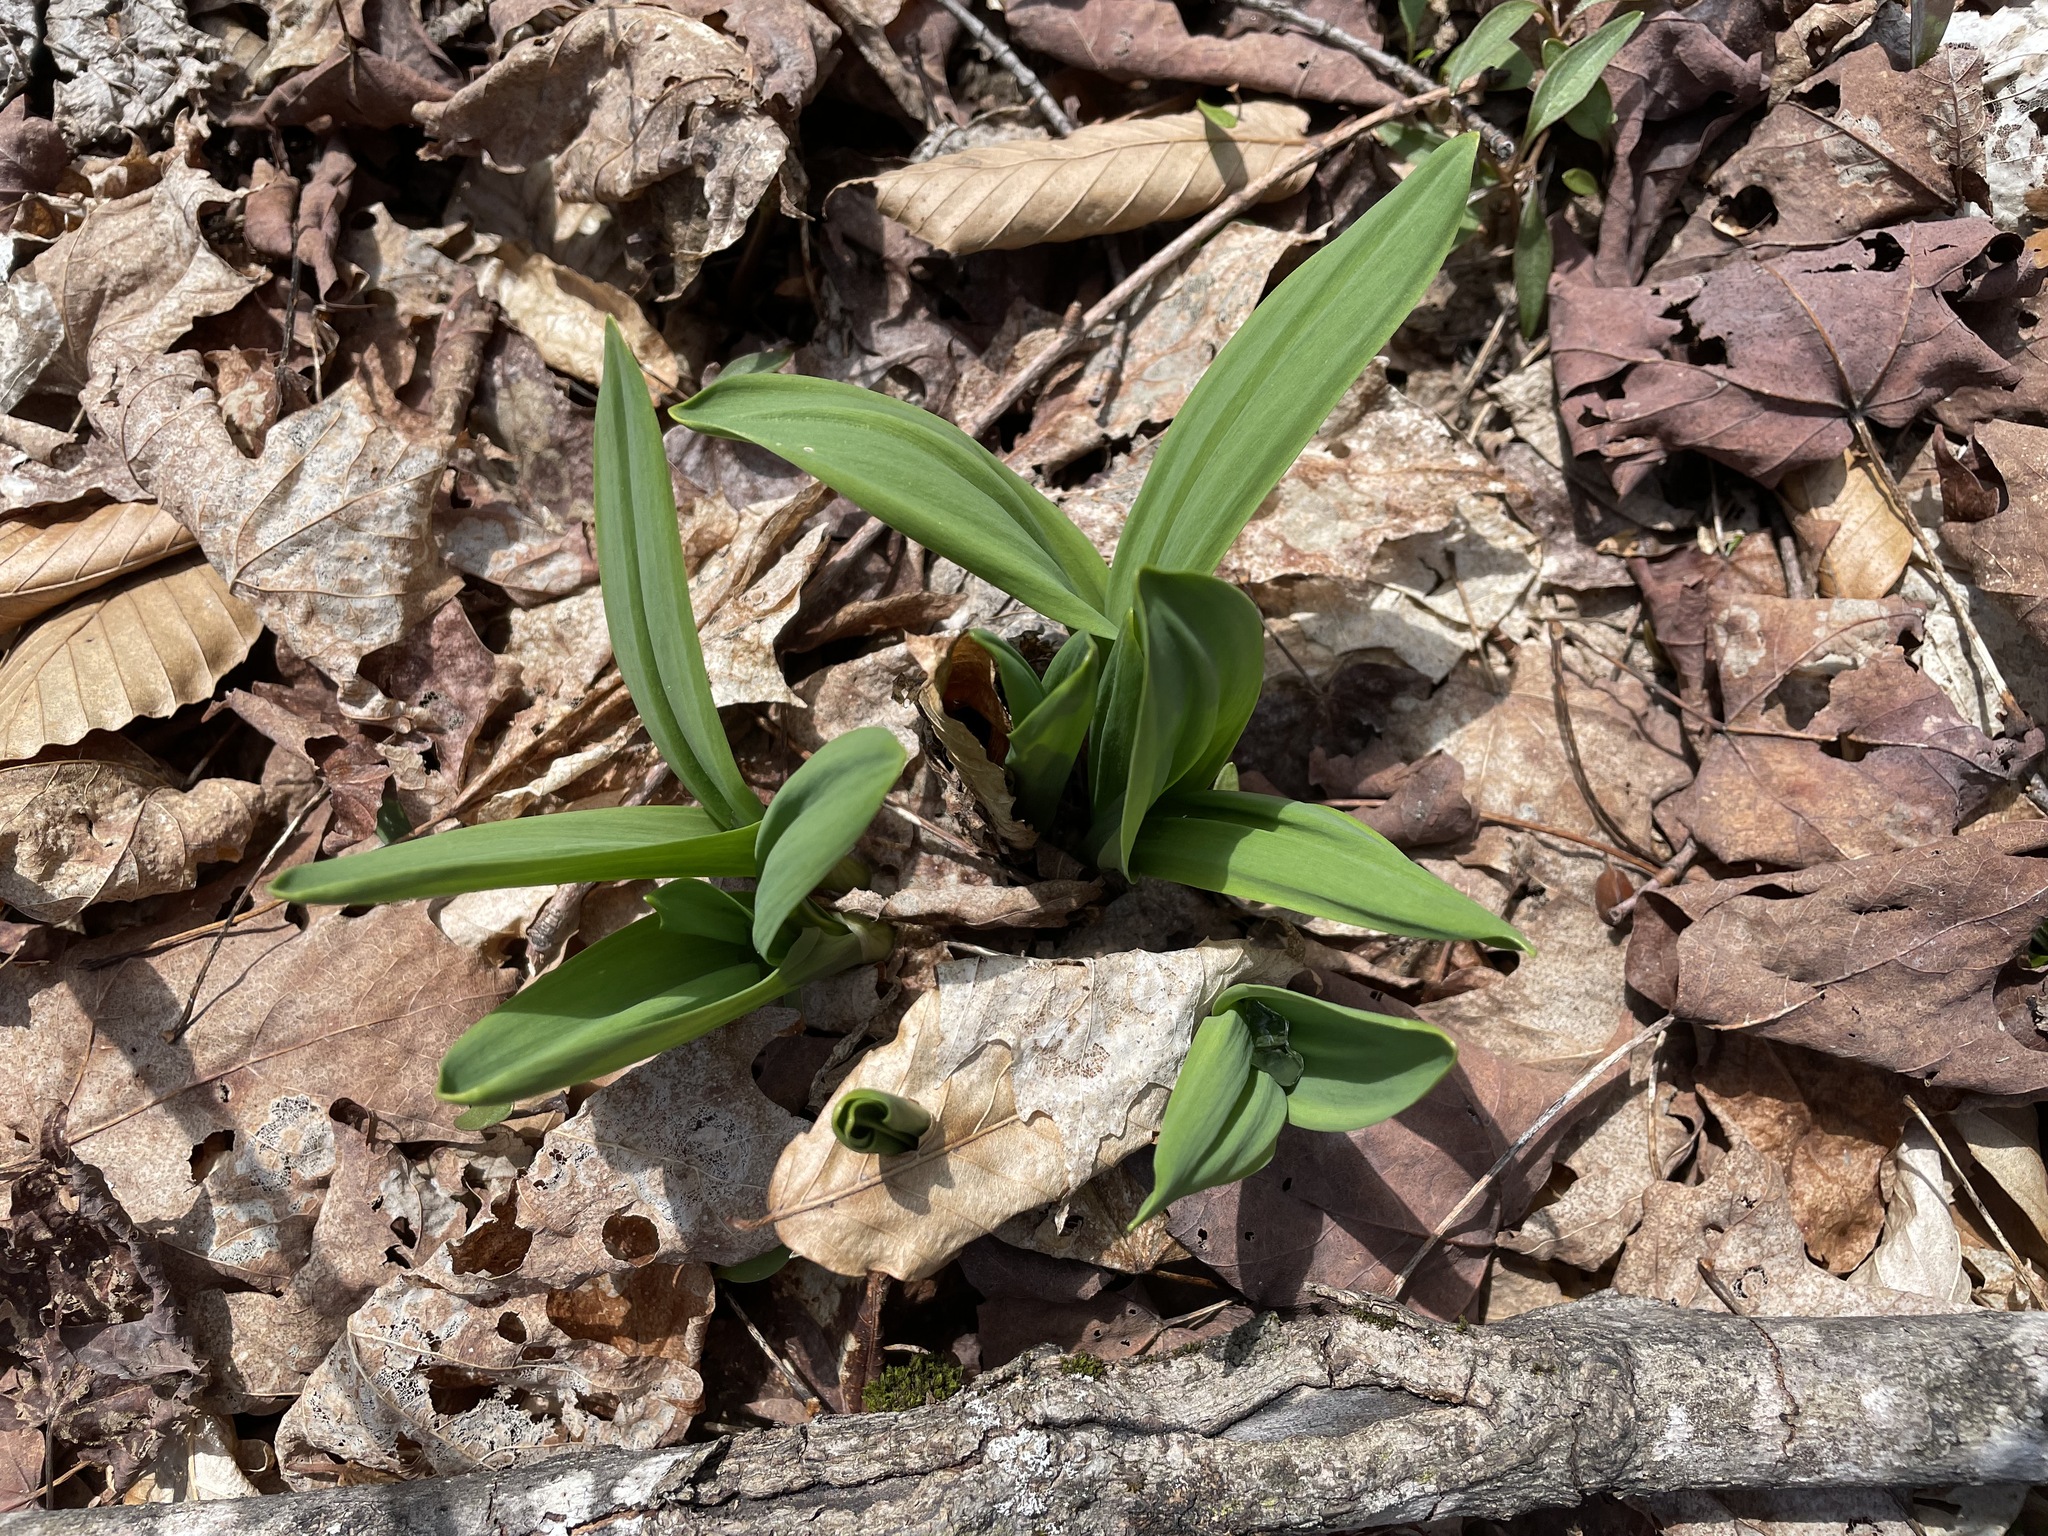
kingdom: Plantae
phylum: Tracheophyta
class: Liliopsida
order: Asparagales
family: Amaryllidaceae
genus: Allium
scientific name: Allium tricoccum
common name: Ramp
